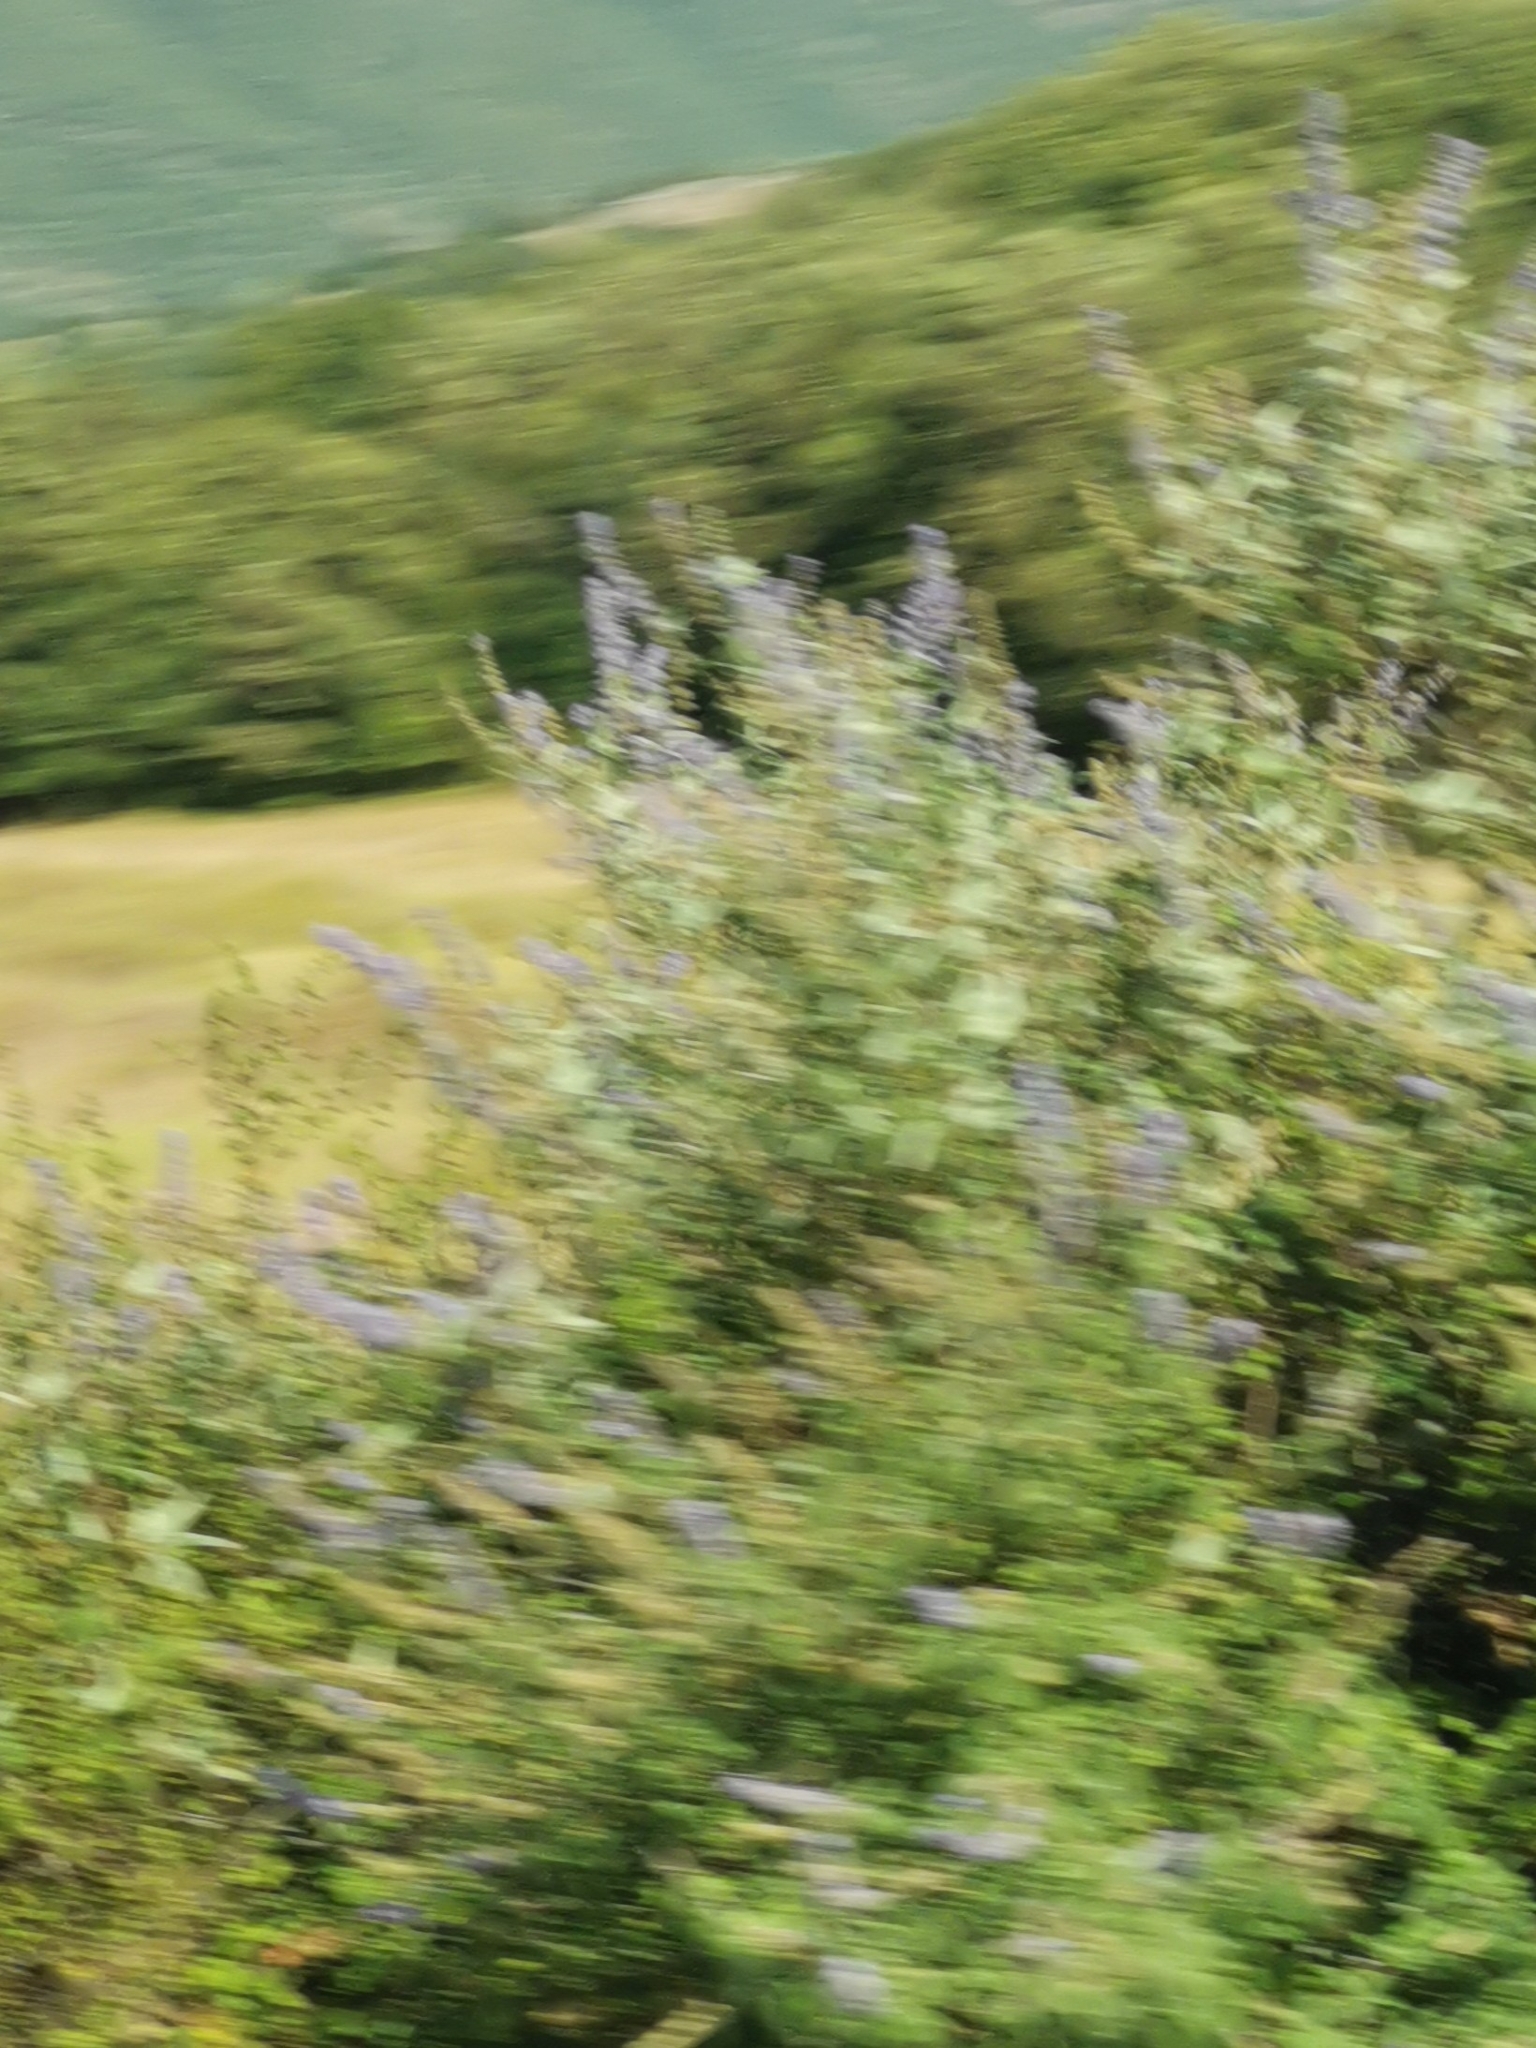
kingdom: Plantae
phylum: Tracheophyta
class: Magnoliopsida
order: Lamiales
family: Lamiaceae
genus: Vitex
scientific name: Vitex agnus-castus
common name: Chasteberry
